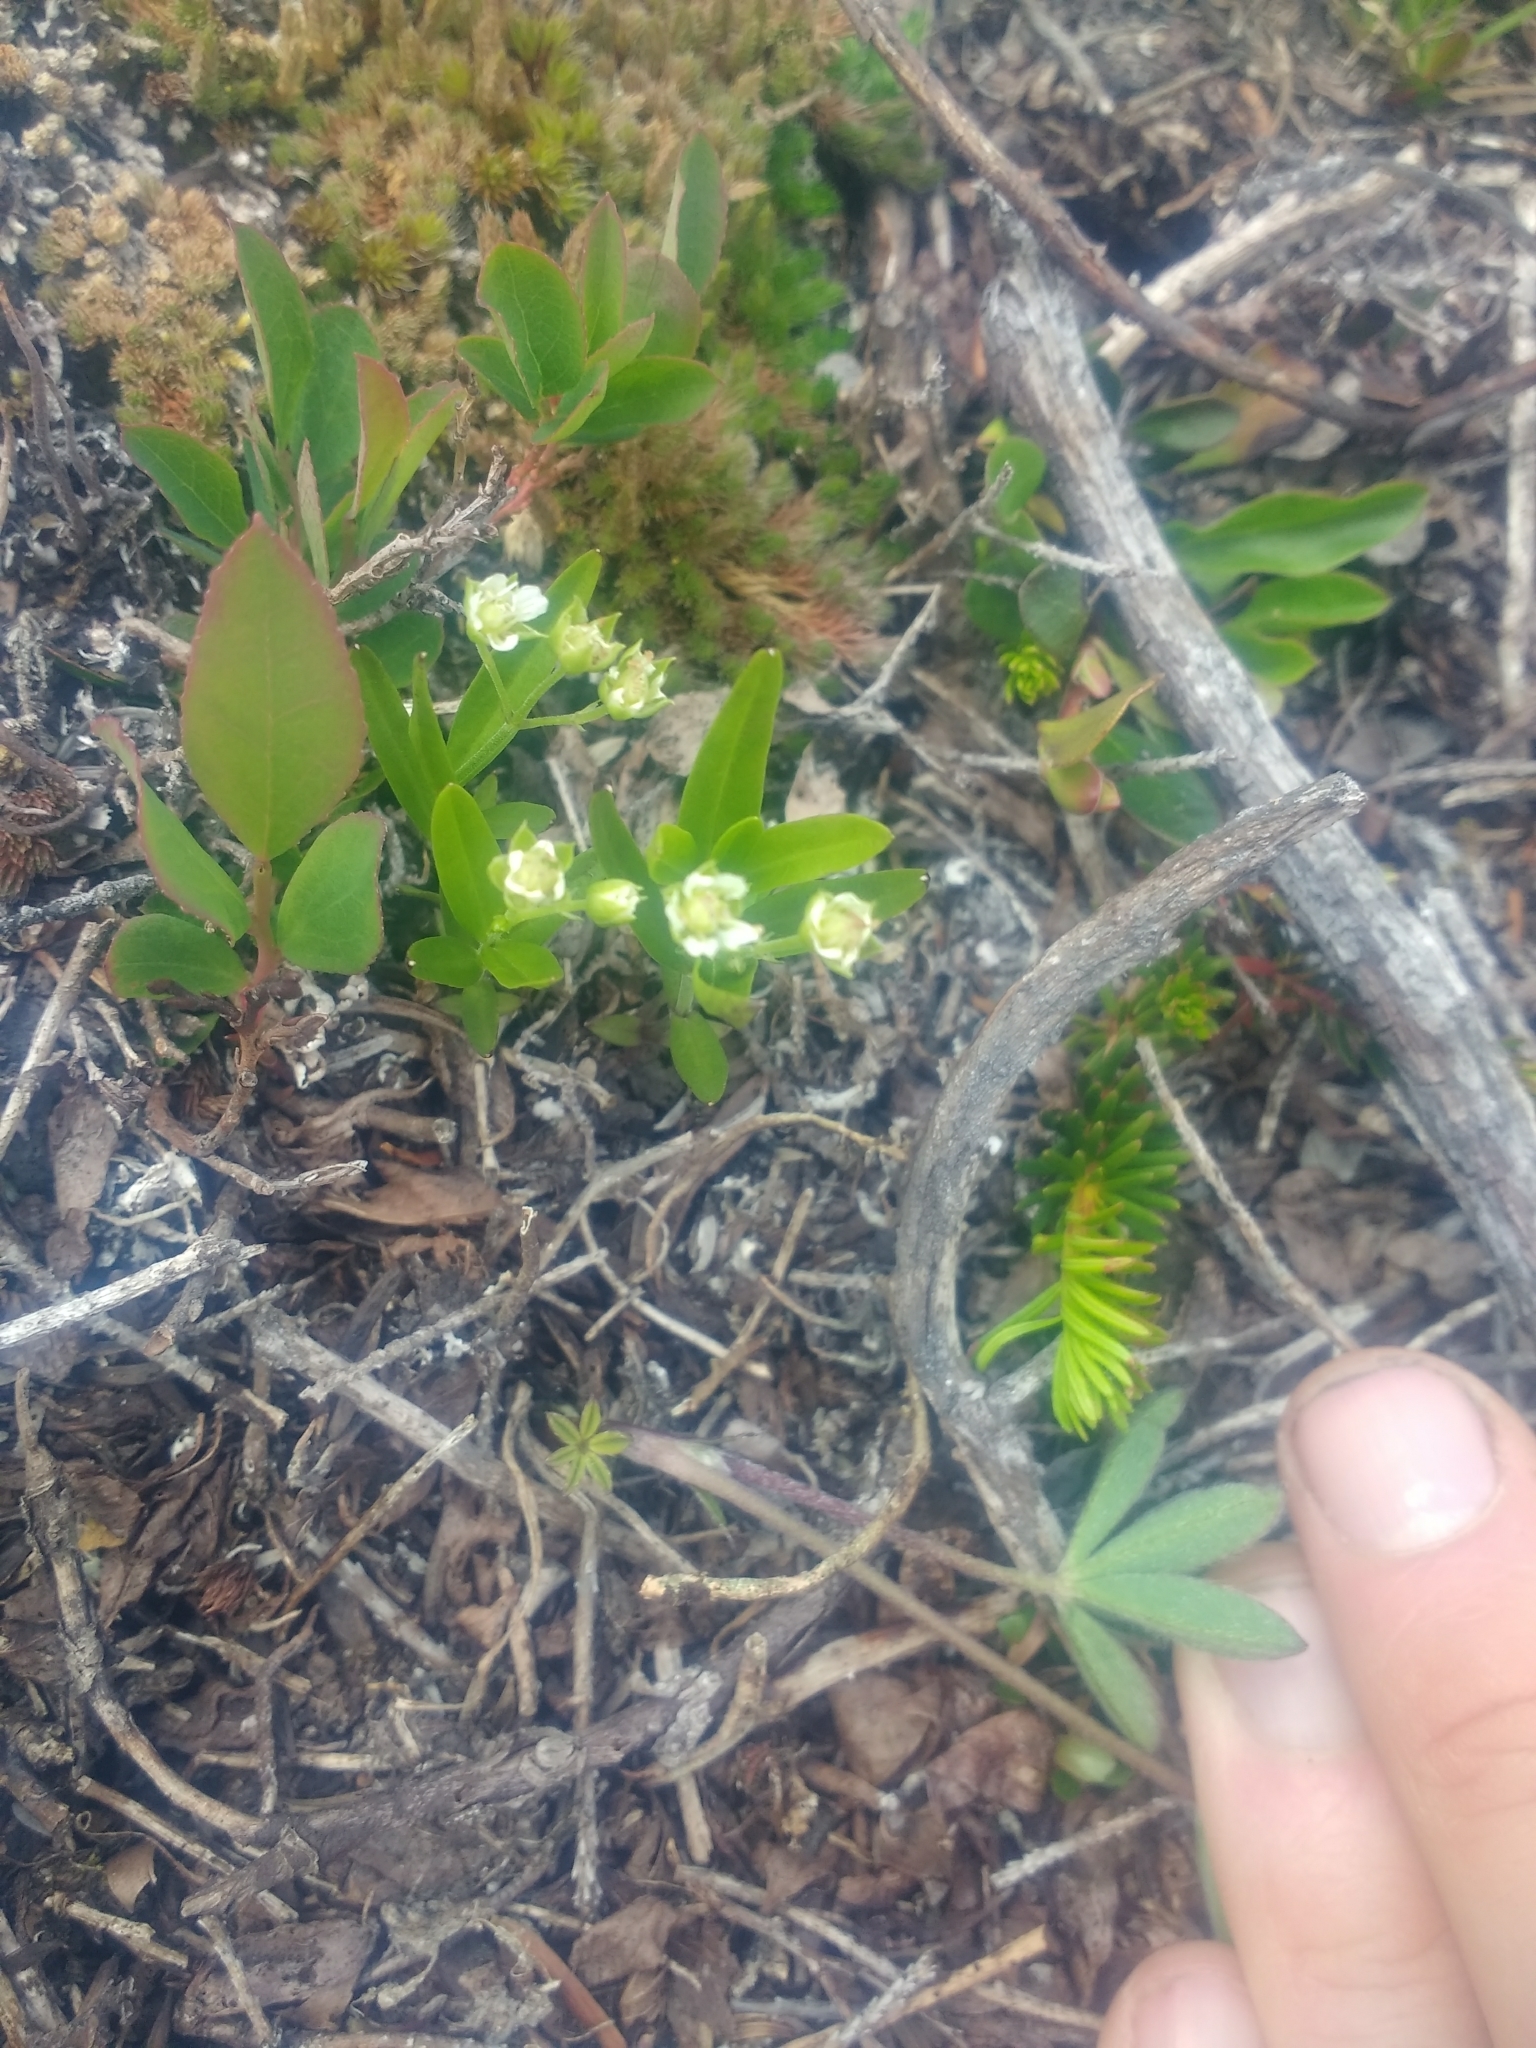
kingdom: Plantae
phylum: Tracheophyta
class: Magnoliopsida
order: Caryophyllales
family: Caryophyllaceae
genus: Moehringia
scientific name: Moehringia macrophylla
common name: Big-leaf sandwort
